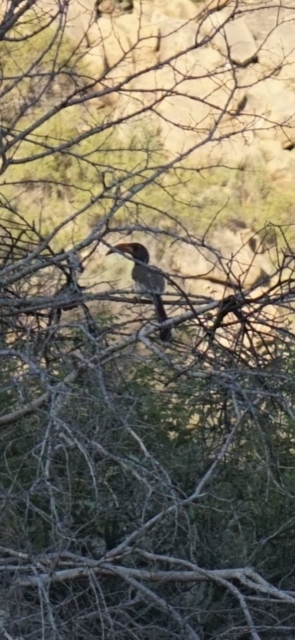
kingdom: Animalia
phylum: Chordata
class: Aves
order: Bucerotiformes
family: Bucerotidae
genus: Tockus
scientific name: Tockus monteiri
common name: Monteiro's hornbill
